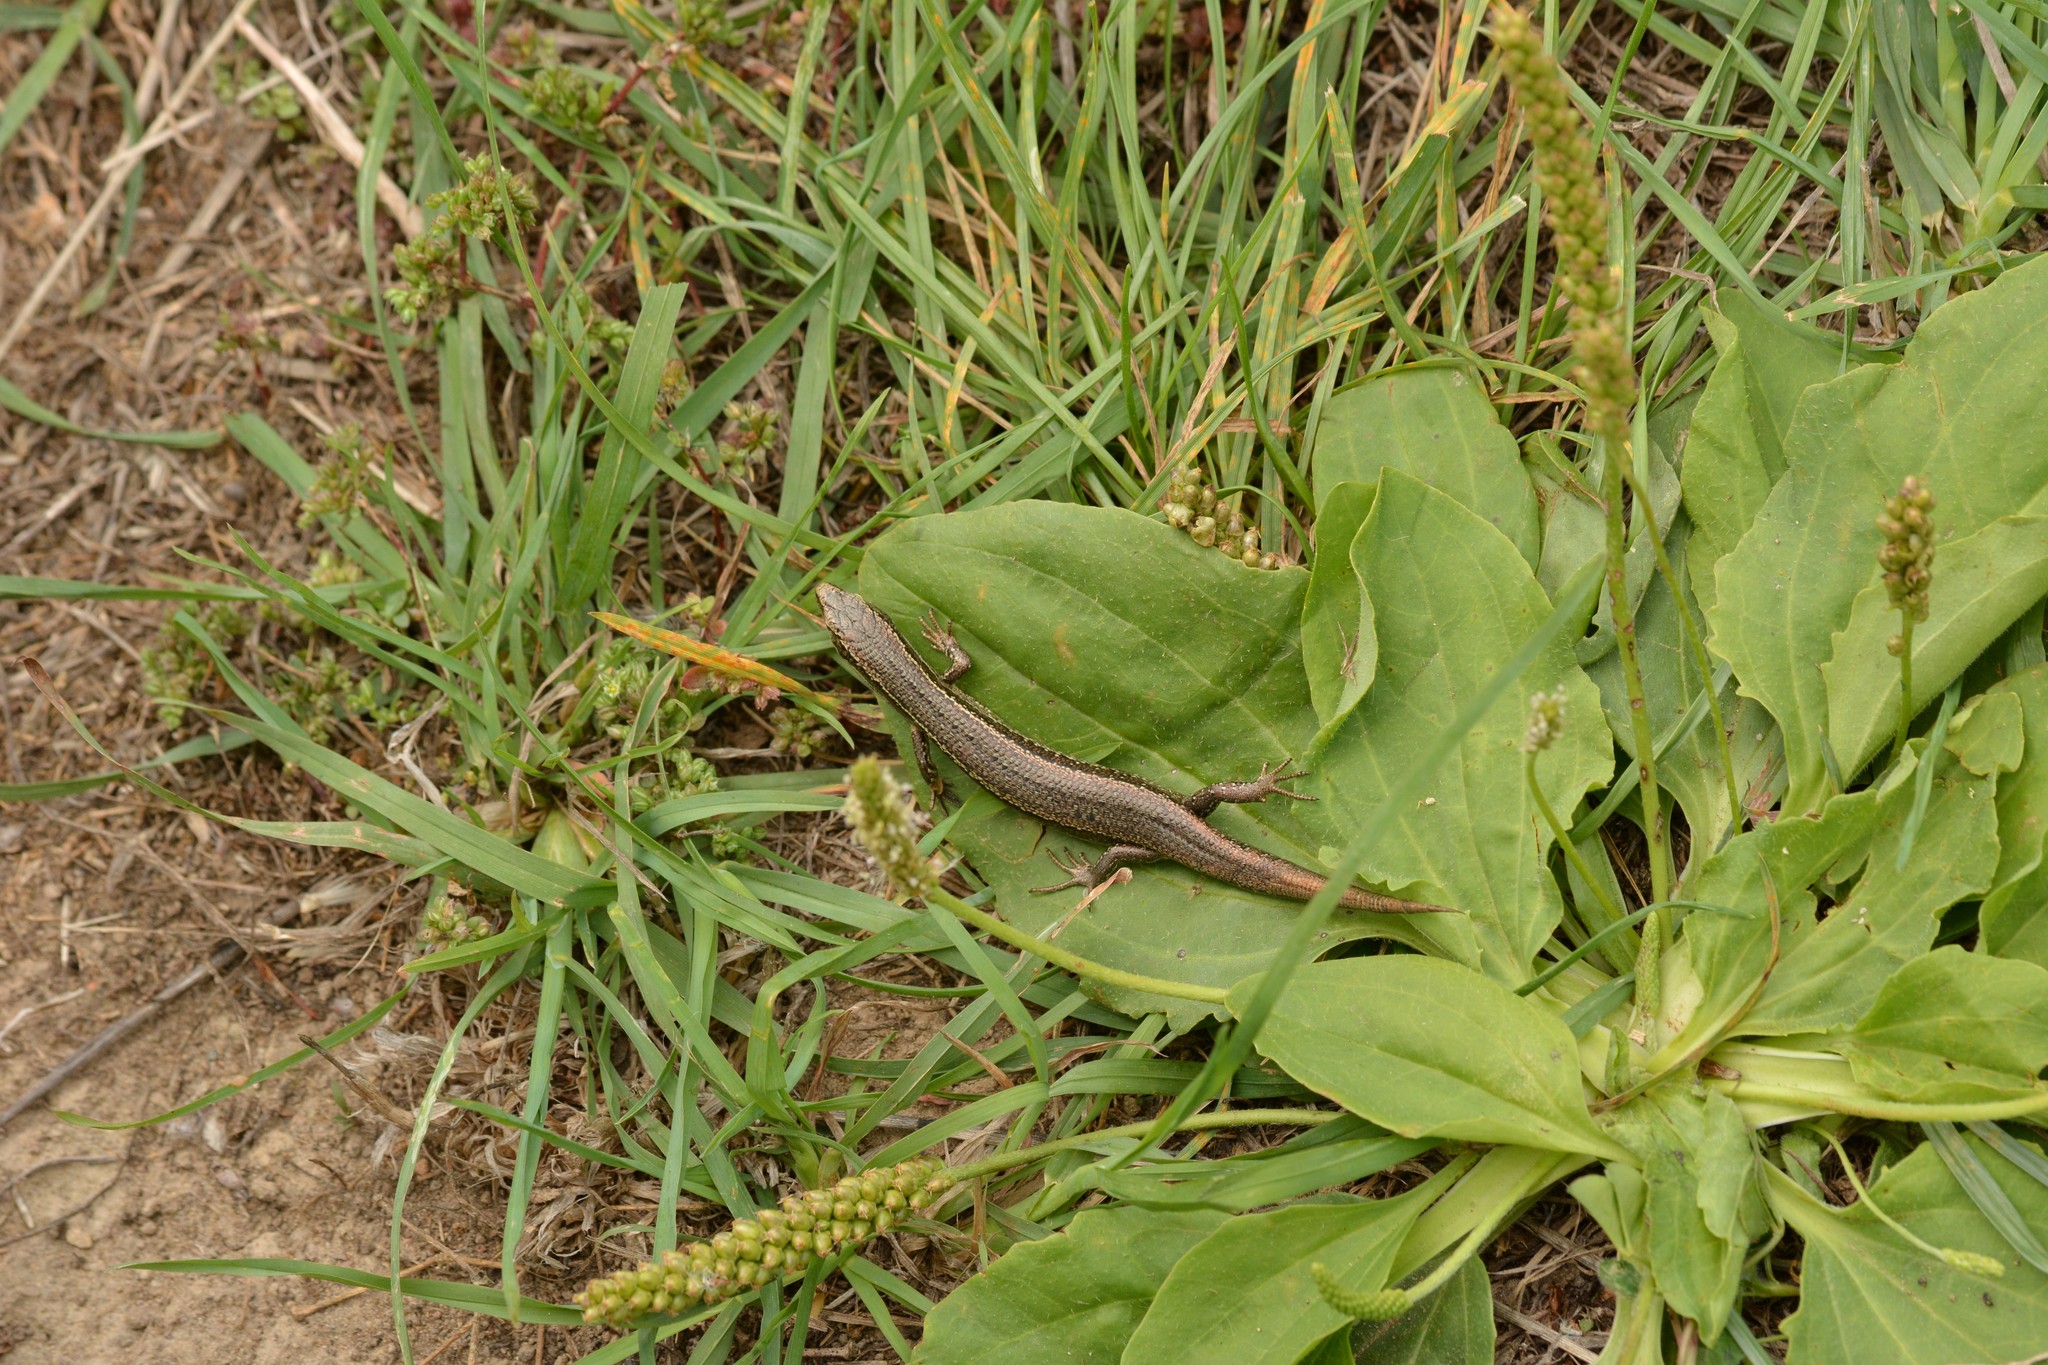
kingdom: Animalia
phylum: Chordata
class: Squamata
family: Scincidae
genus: Oligosoma
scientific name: Oligosoma polychroma
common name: Common new zealand skink
